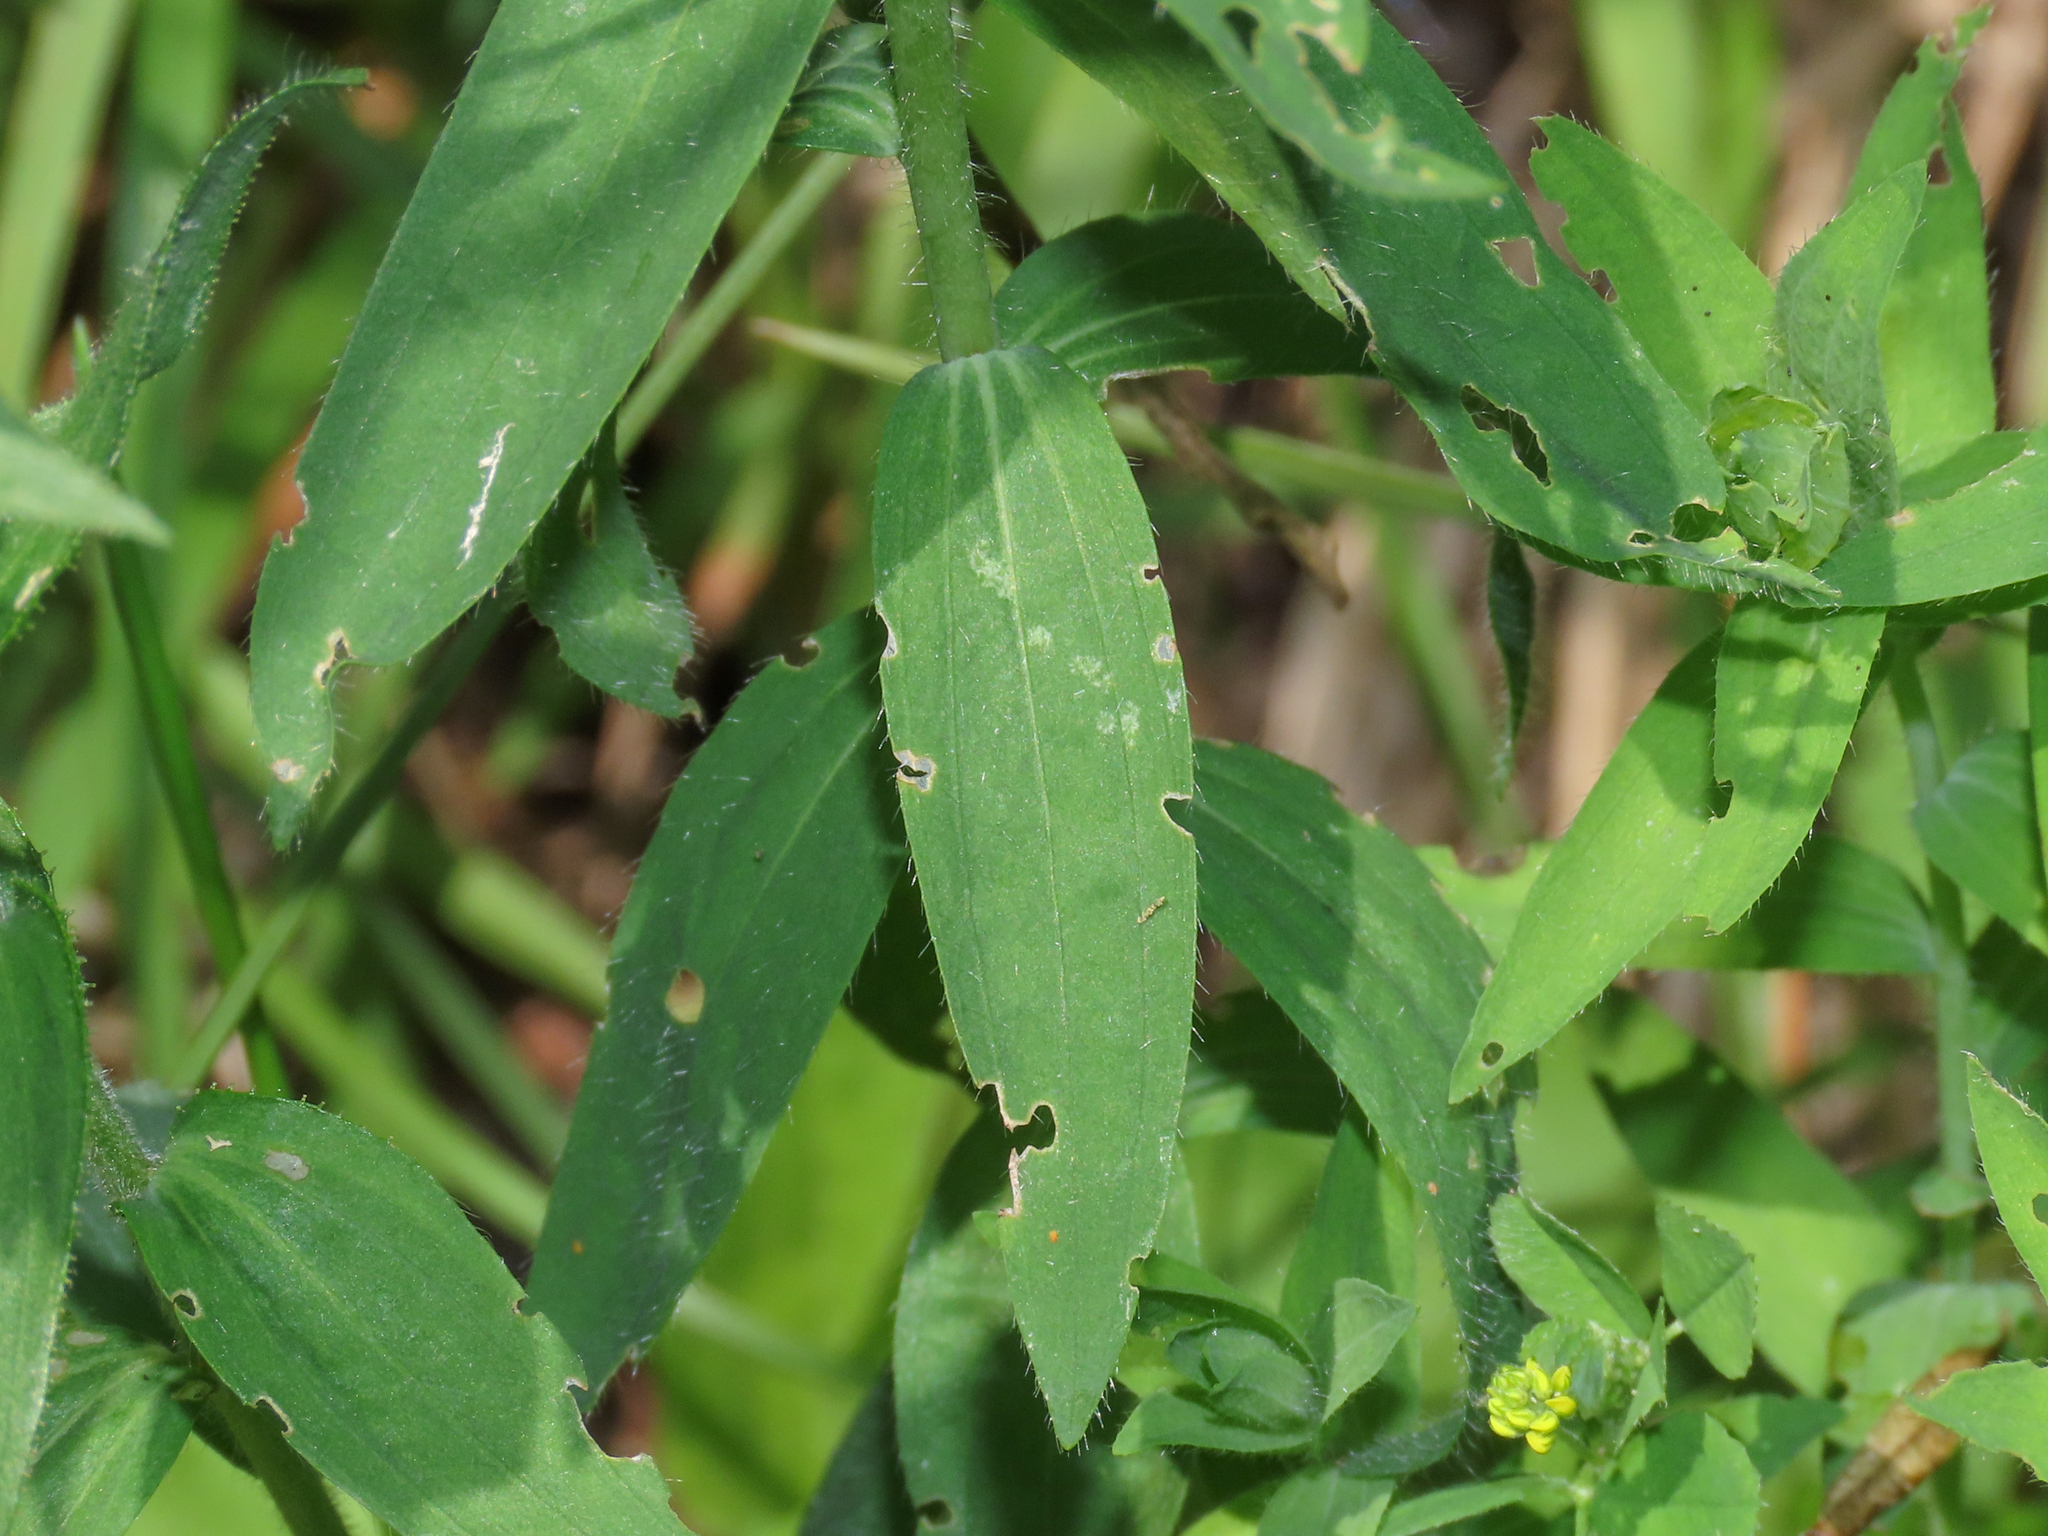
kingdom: Plantae
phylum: Tracheophyta
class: Magnoliopsida
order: Malpighiales
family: Linaceae
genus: Linum
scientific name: Linum viscosum
